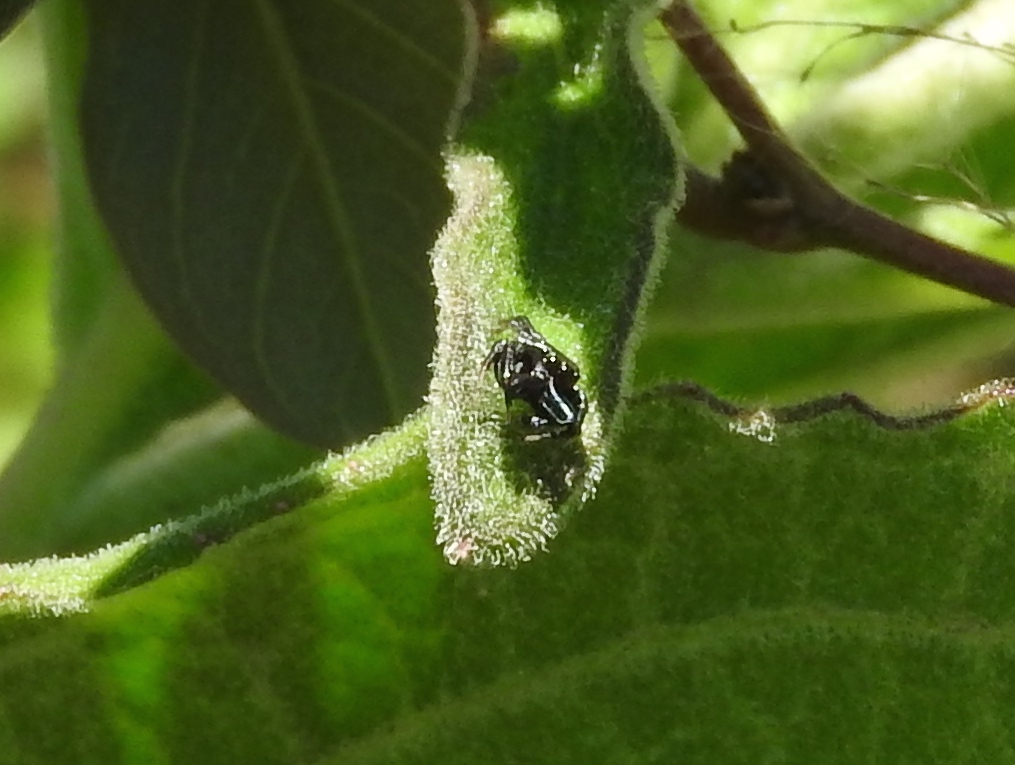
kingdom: Animalia
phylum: Arthropoda
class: Arachnida
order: Araneae
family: Salticidae
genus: Messua
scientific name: Messua
